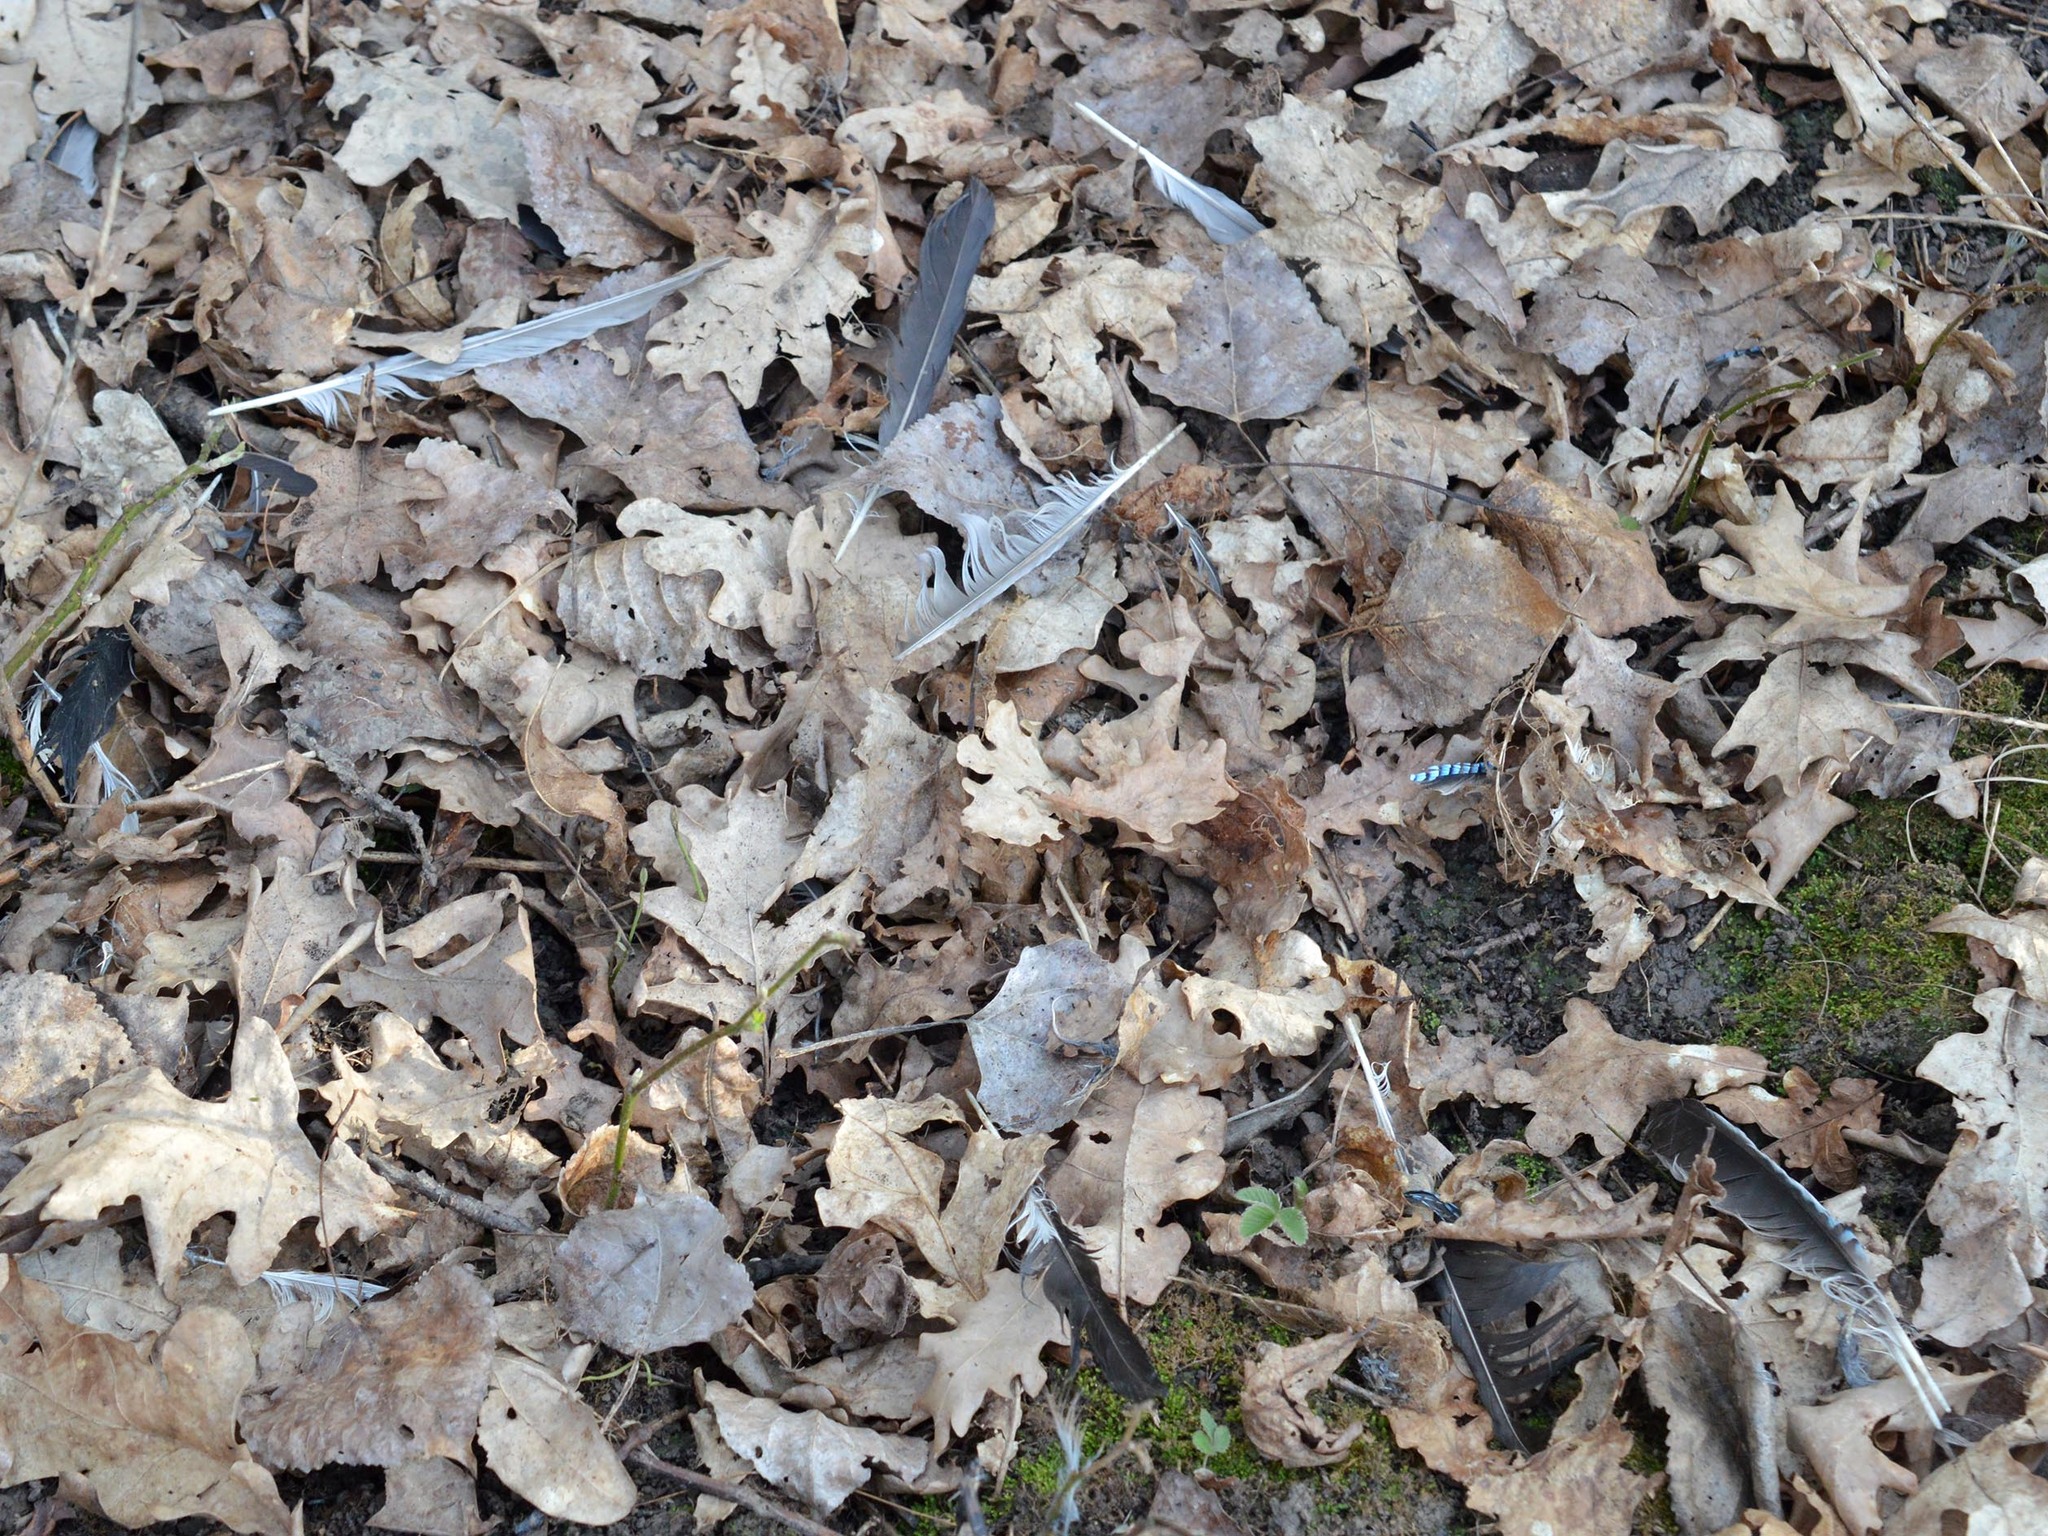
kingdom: Animalia
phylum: Chordata
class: Aves
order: Passeriformes
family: Corvidae
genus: Garrulus
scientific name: Garrulus glandarius
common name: Eurasian jay
